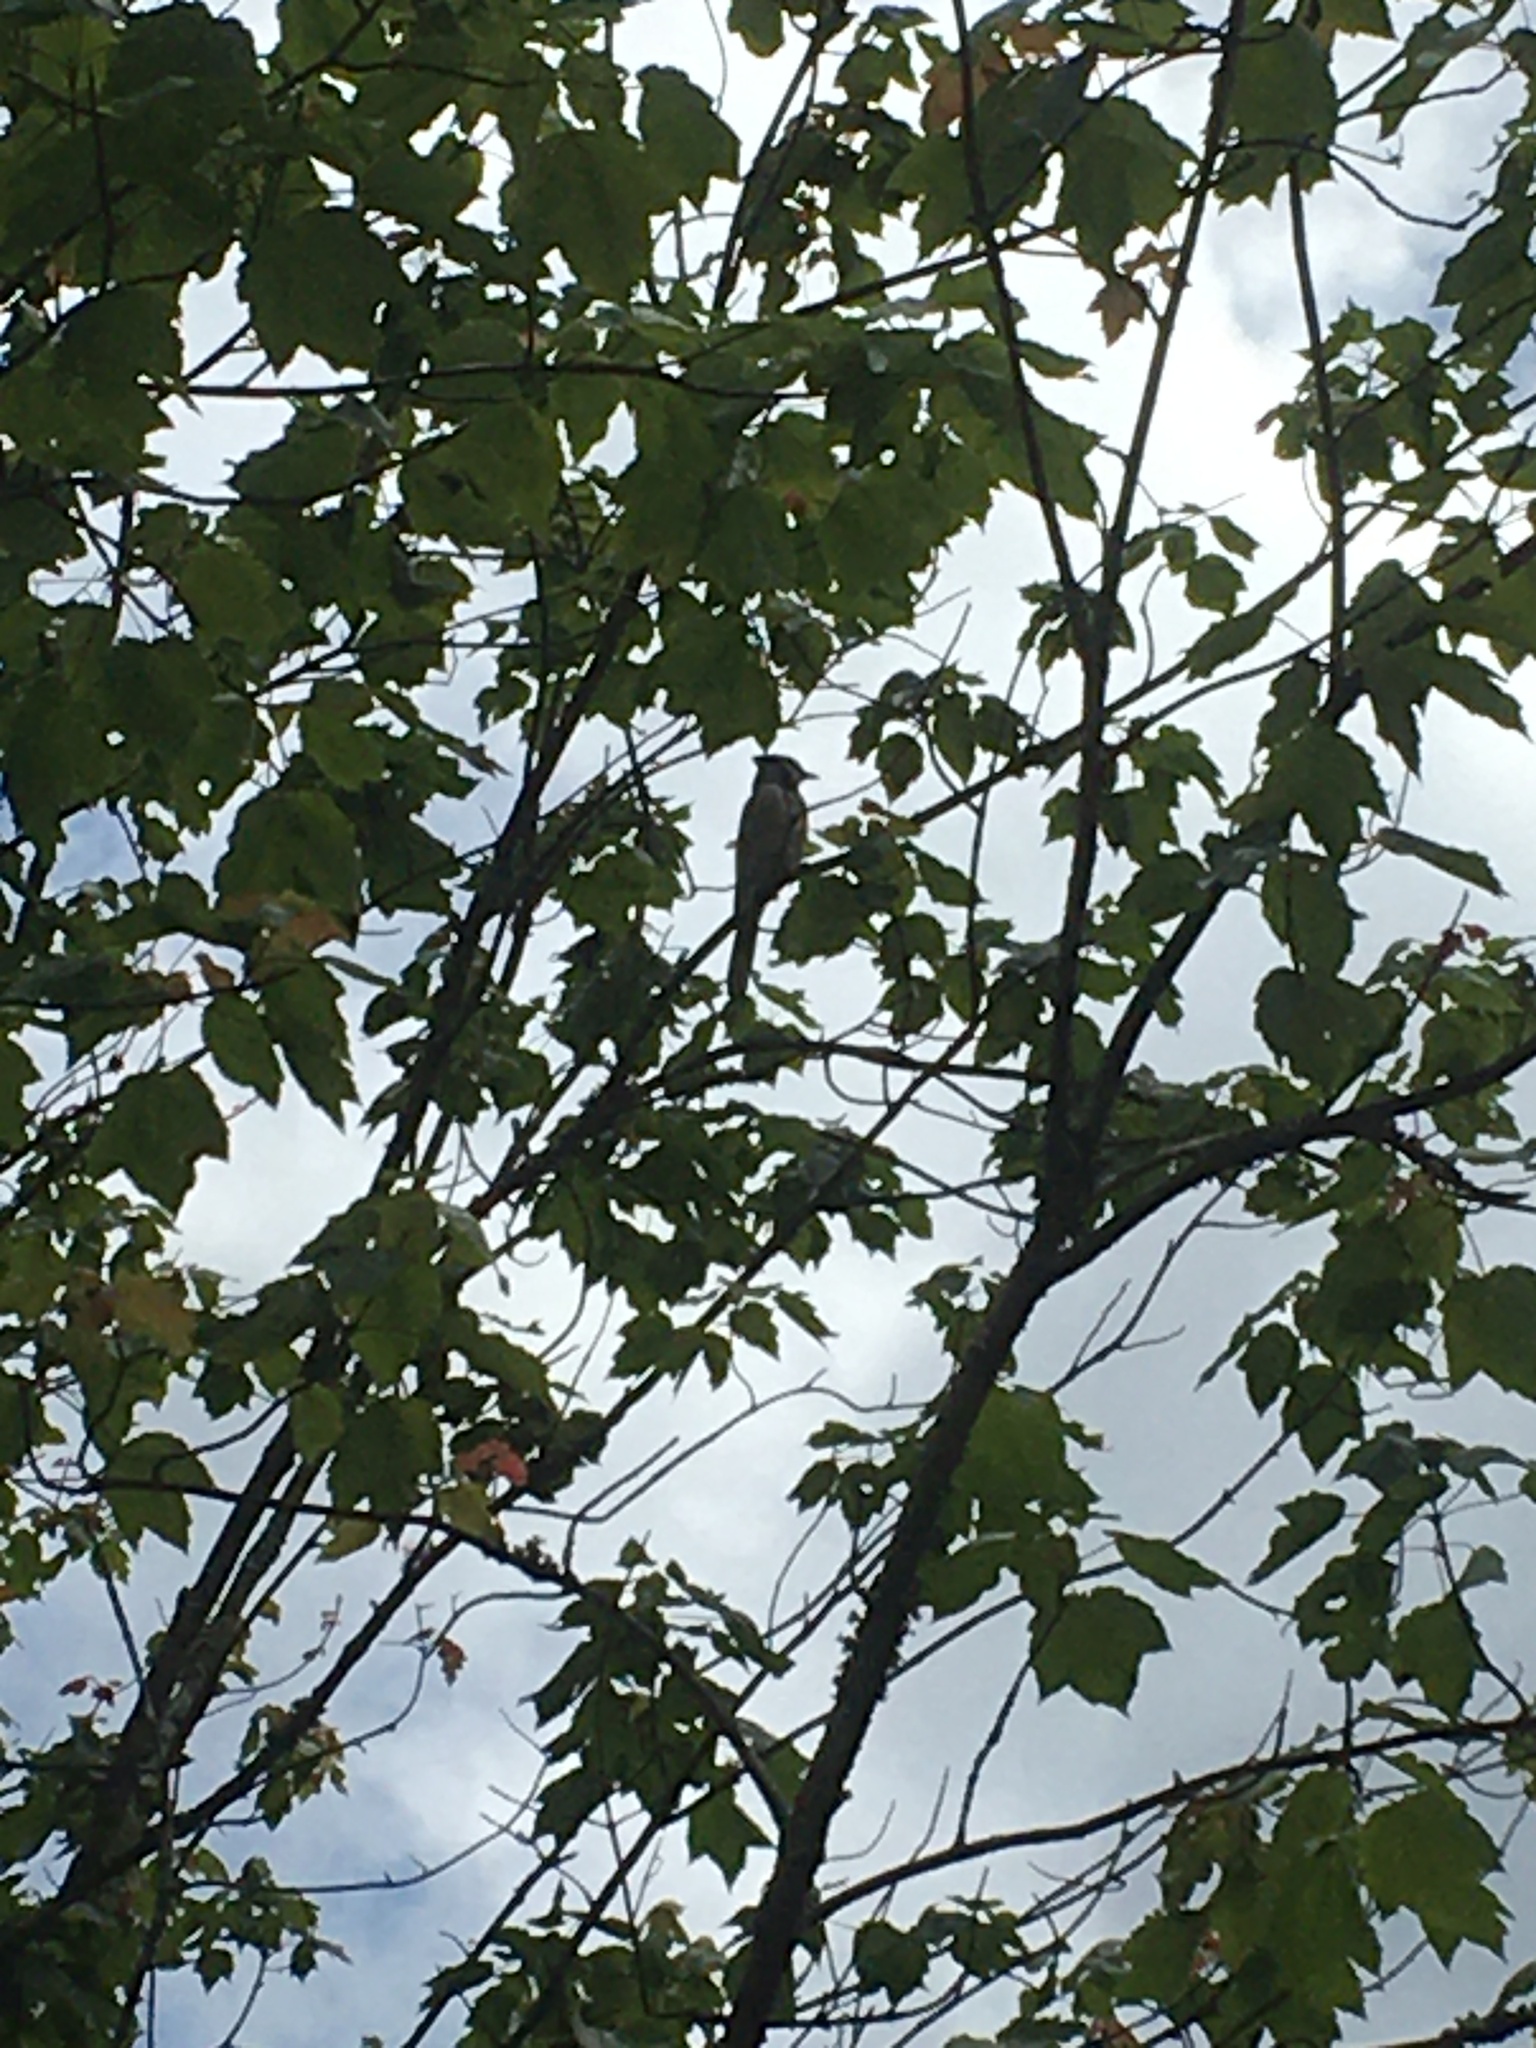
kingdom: Animalia
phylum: Chordata
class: Aves
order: Passeriformes
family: Corvidae
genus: Cyanocitta
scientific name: Cyanocitta cristata
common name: Blue jay
